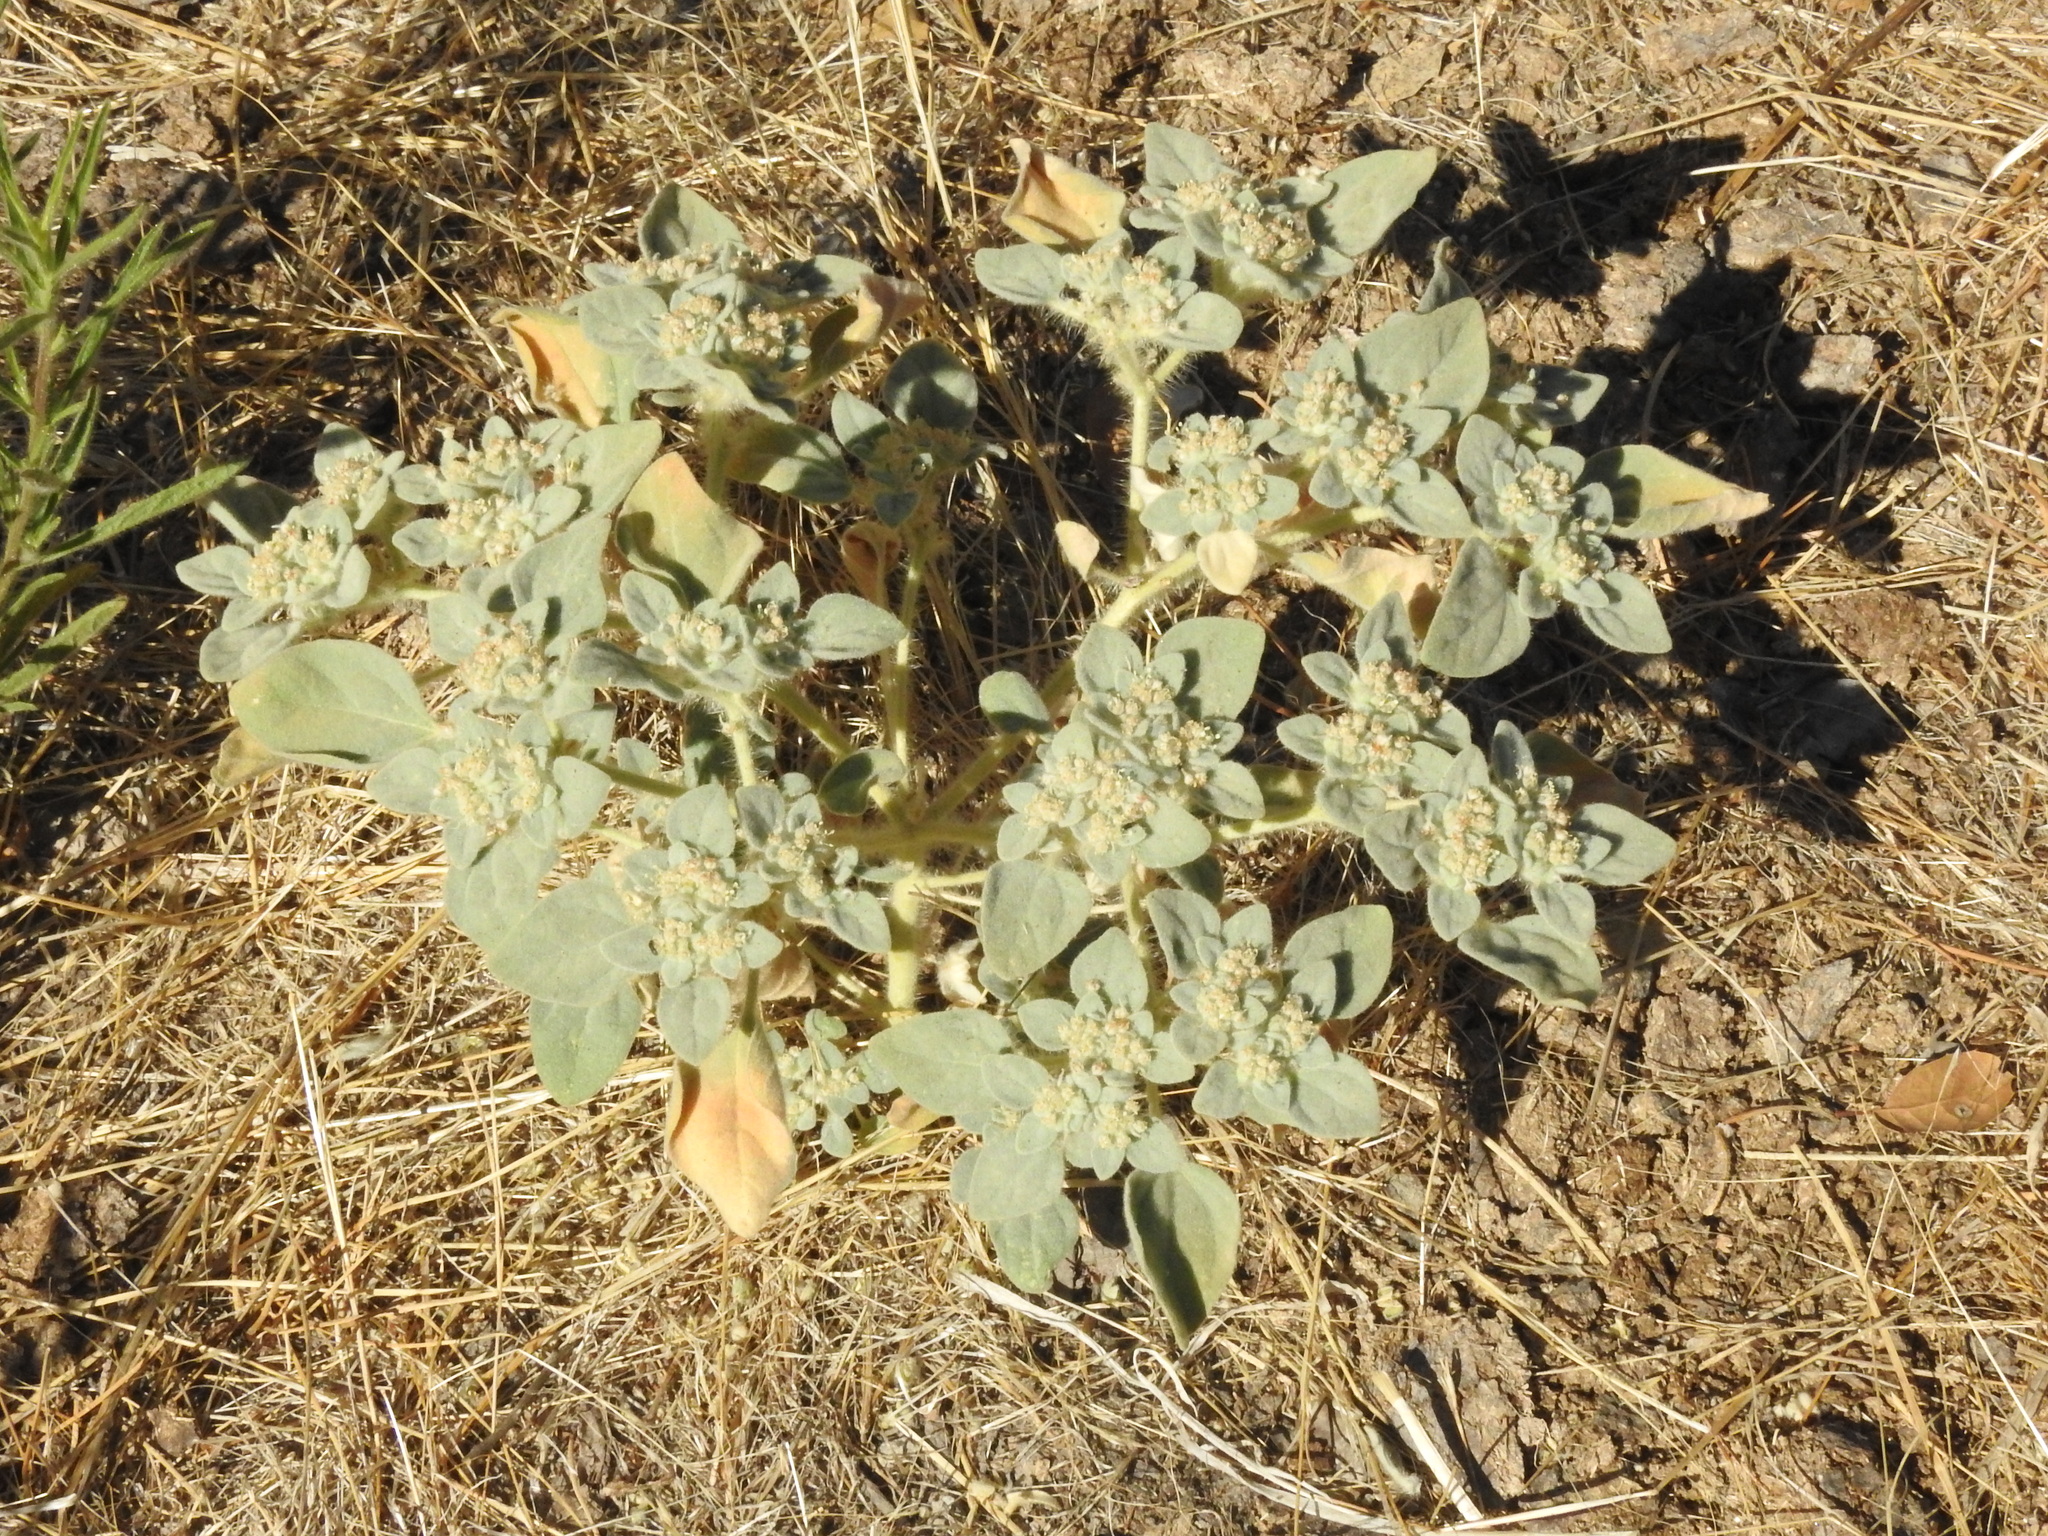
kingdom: Plantae
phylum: Tracheophyta
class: Magnoliopsida
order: Malpighiales
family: Euphorbiaceae
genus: Croton
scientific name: Croton setiger
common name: Dove weed
